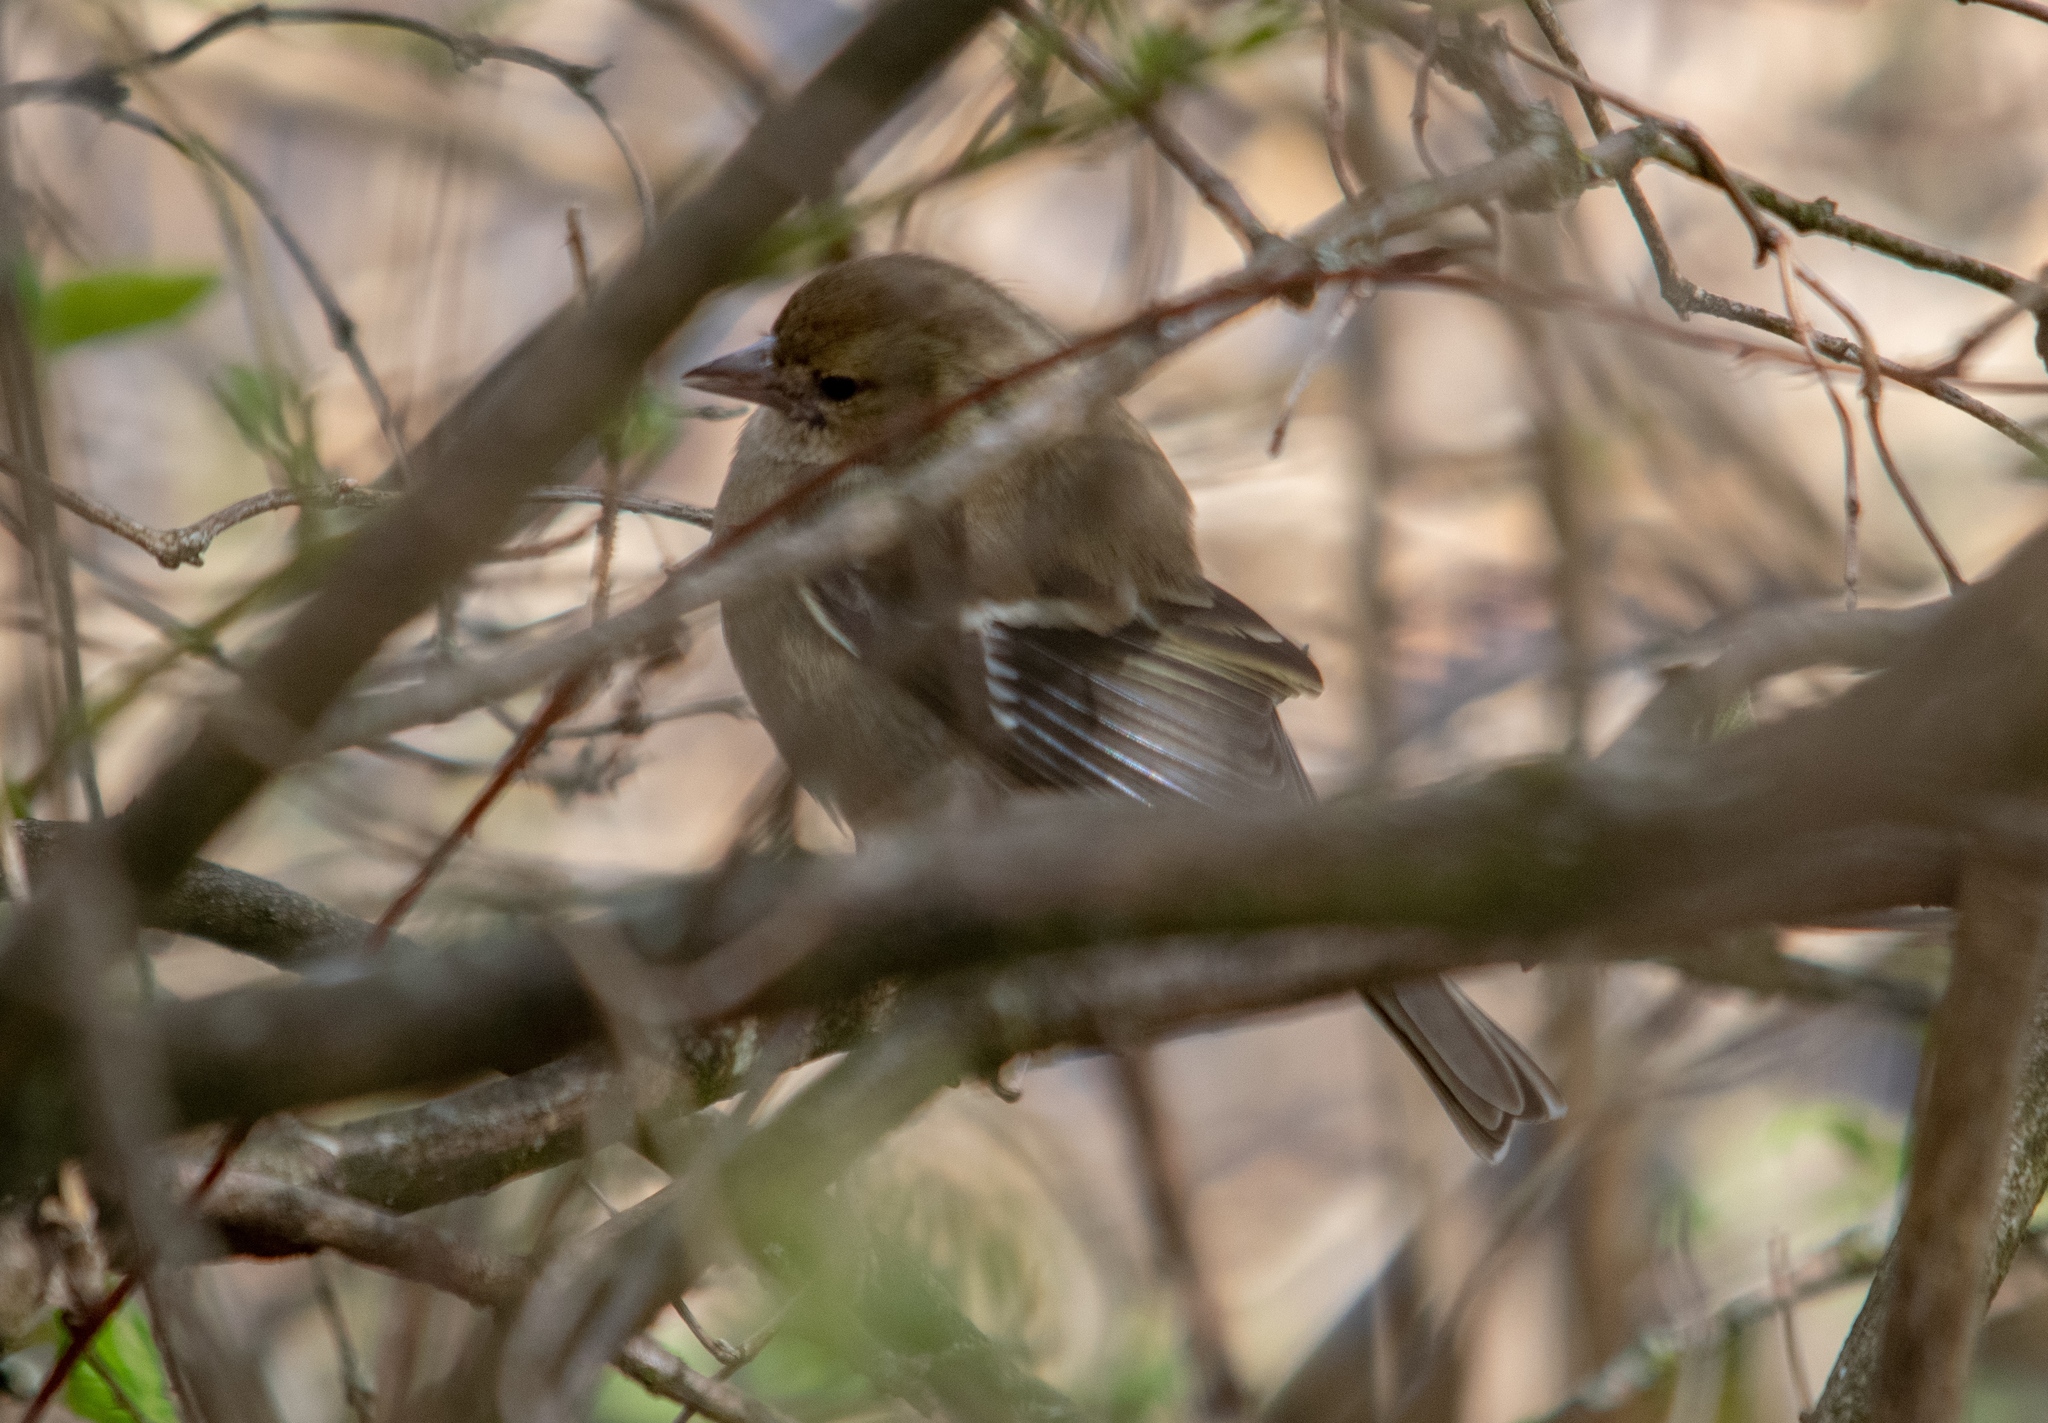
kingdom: Animalia
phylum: Chordata
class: Aves
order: Passeriformes
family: Fringillidae
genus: Fringilla
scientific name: Fringilla coelebs
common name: Common chaffinch
